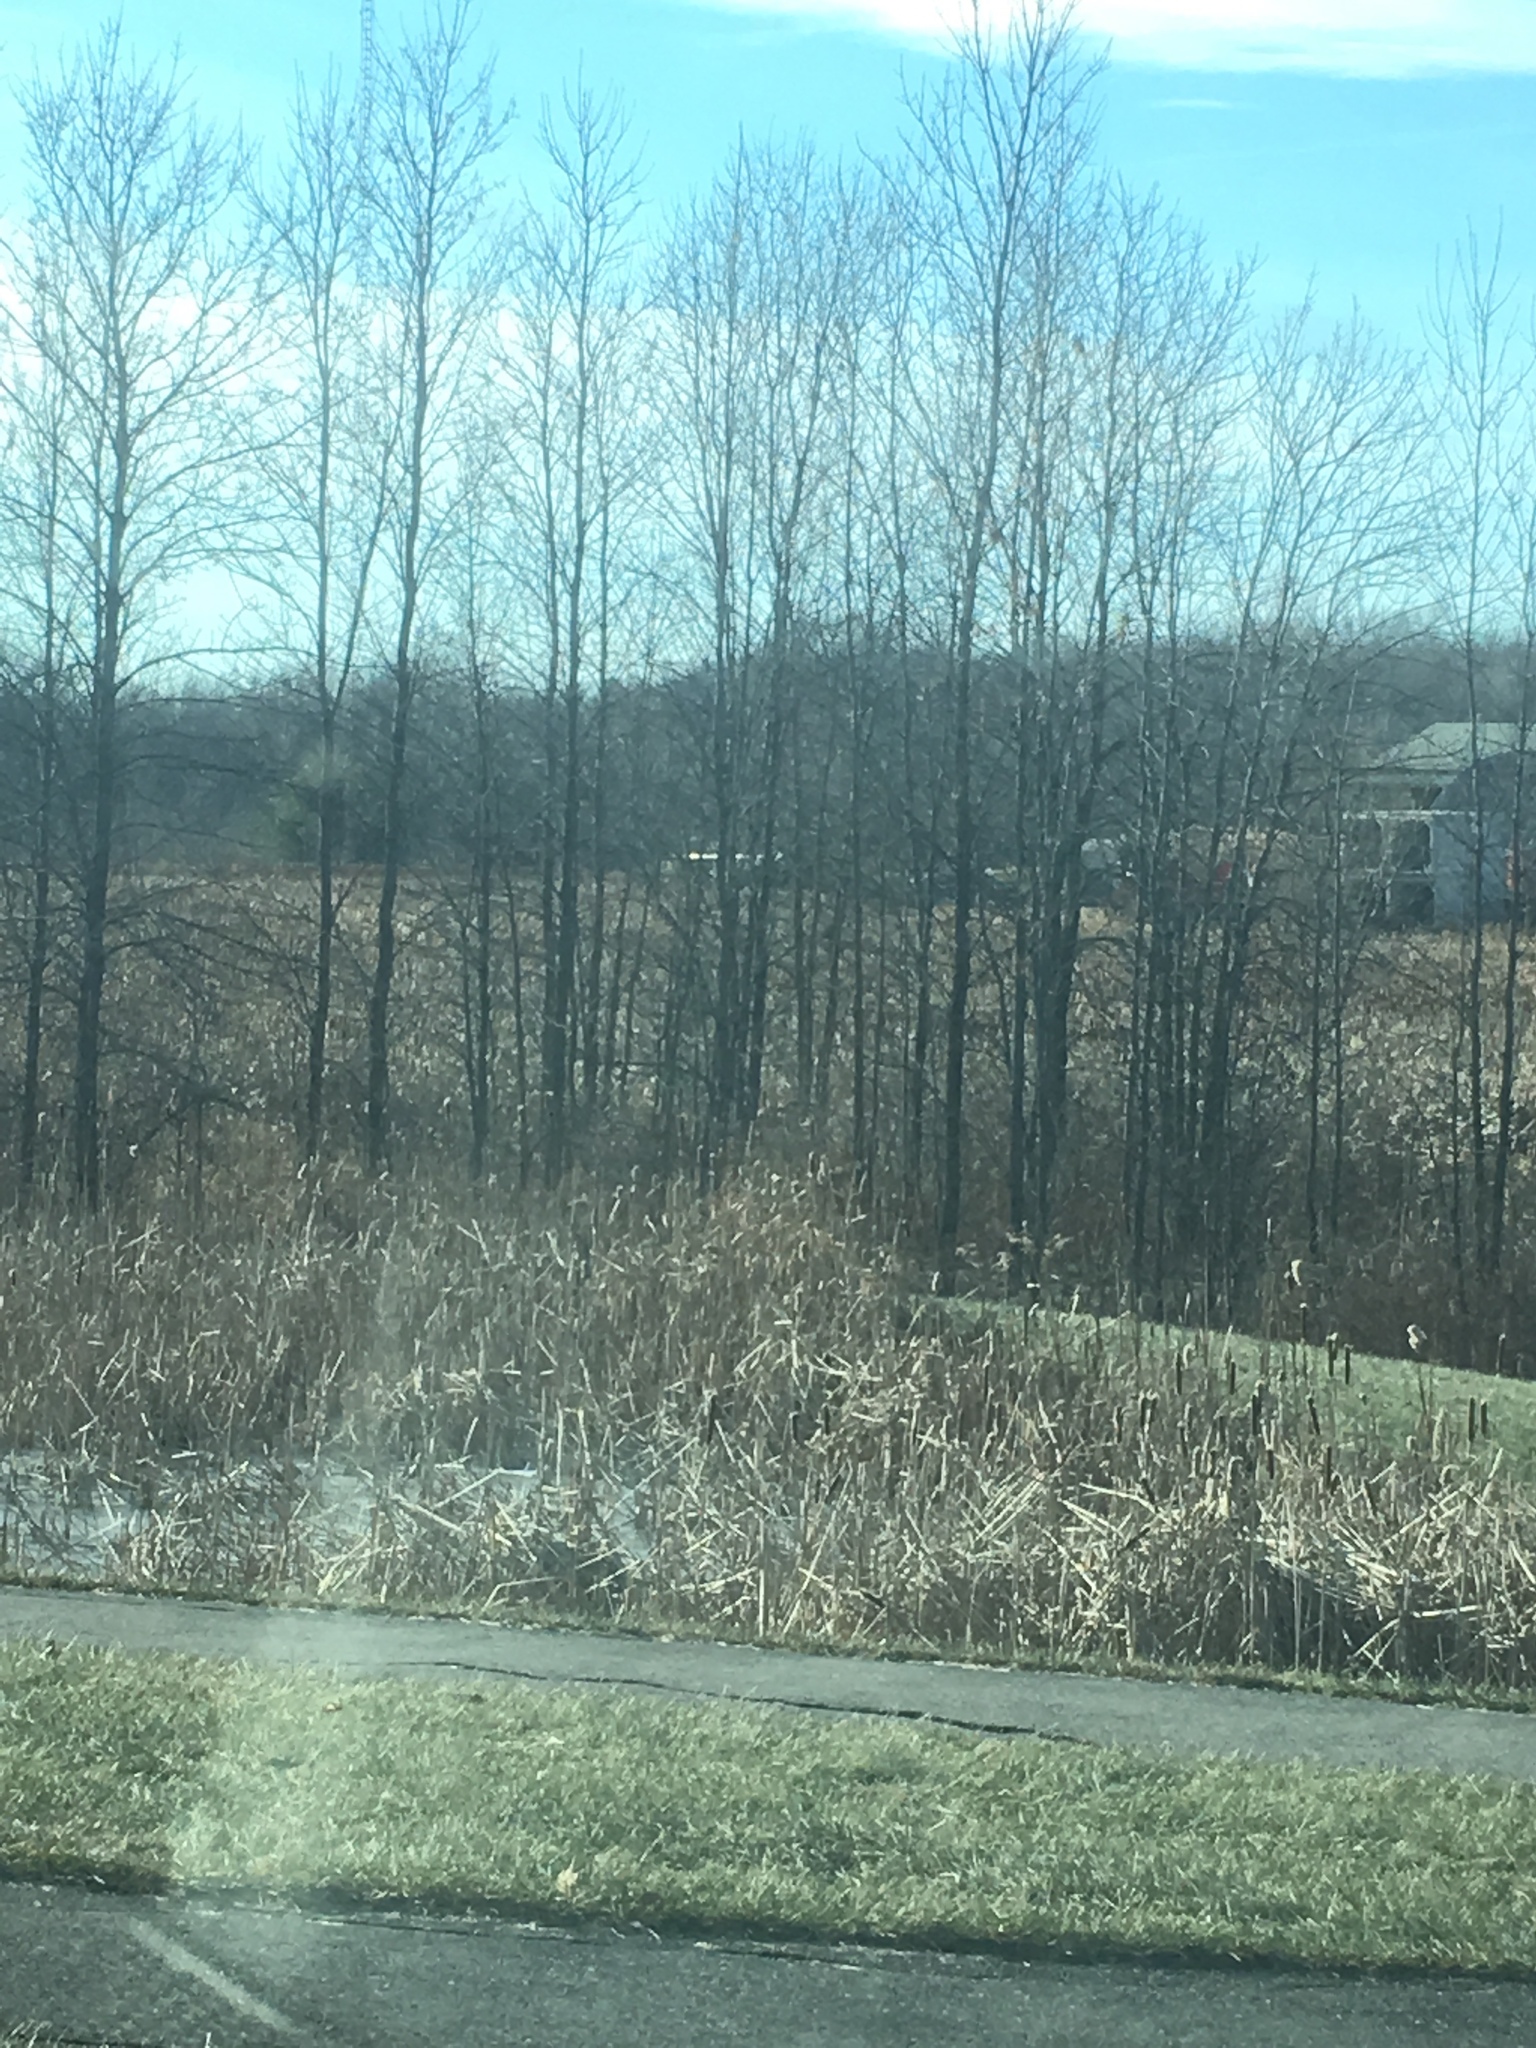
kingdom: Plantae
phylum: Tracheophyta
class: Liliopsida
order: Poales
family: Typhaceae
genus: Typha
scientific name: Typha
